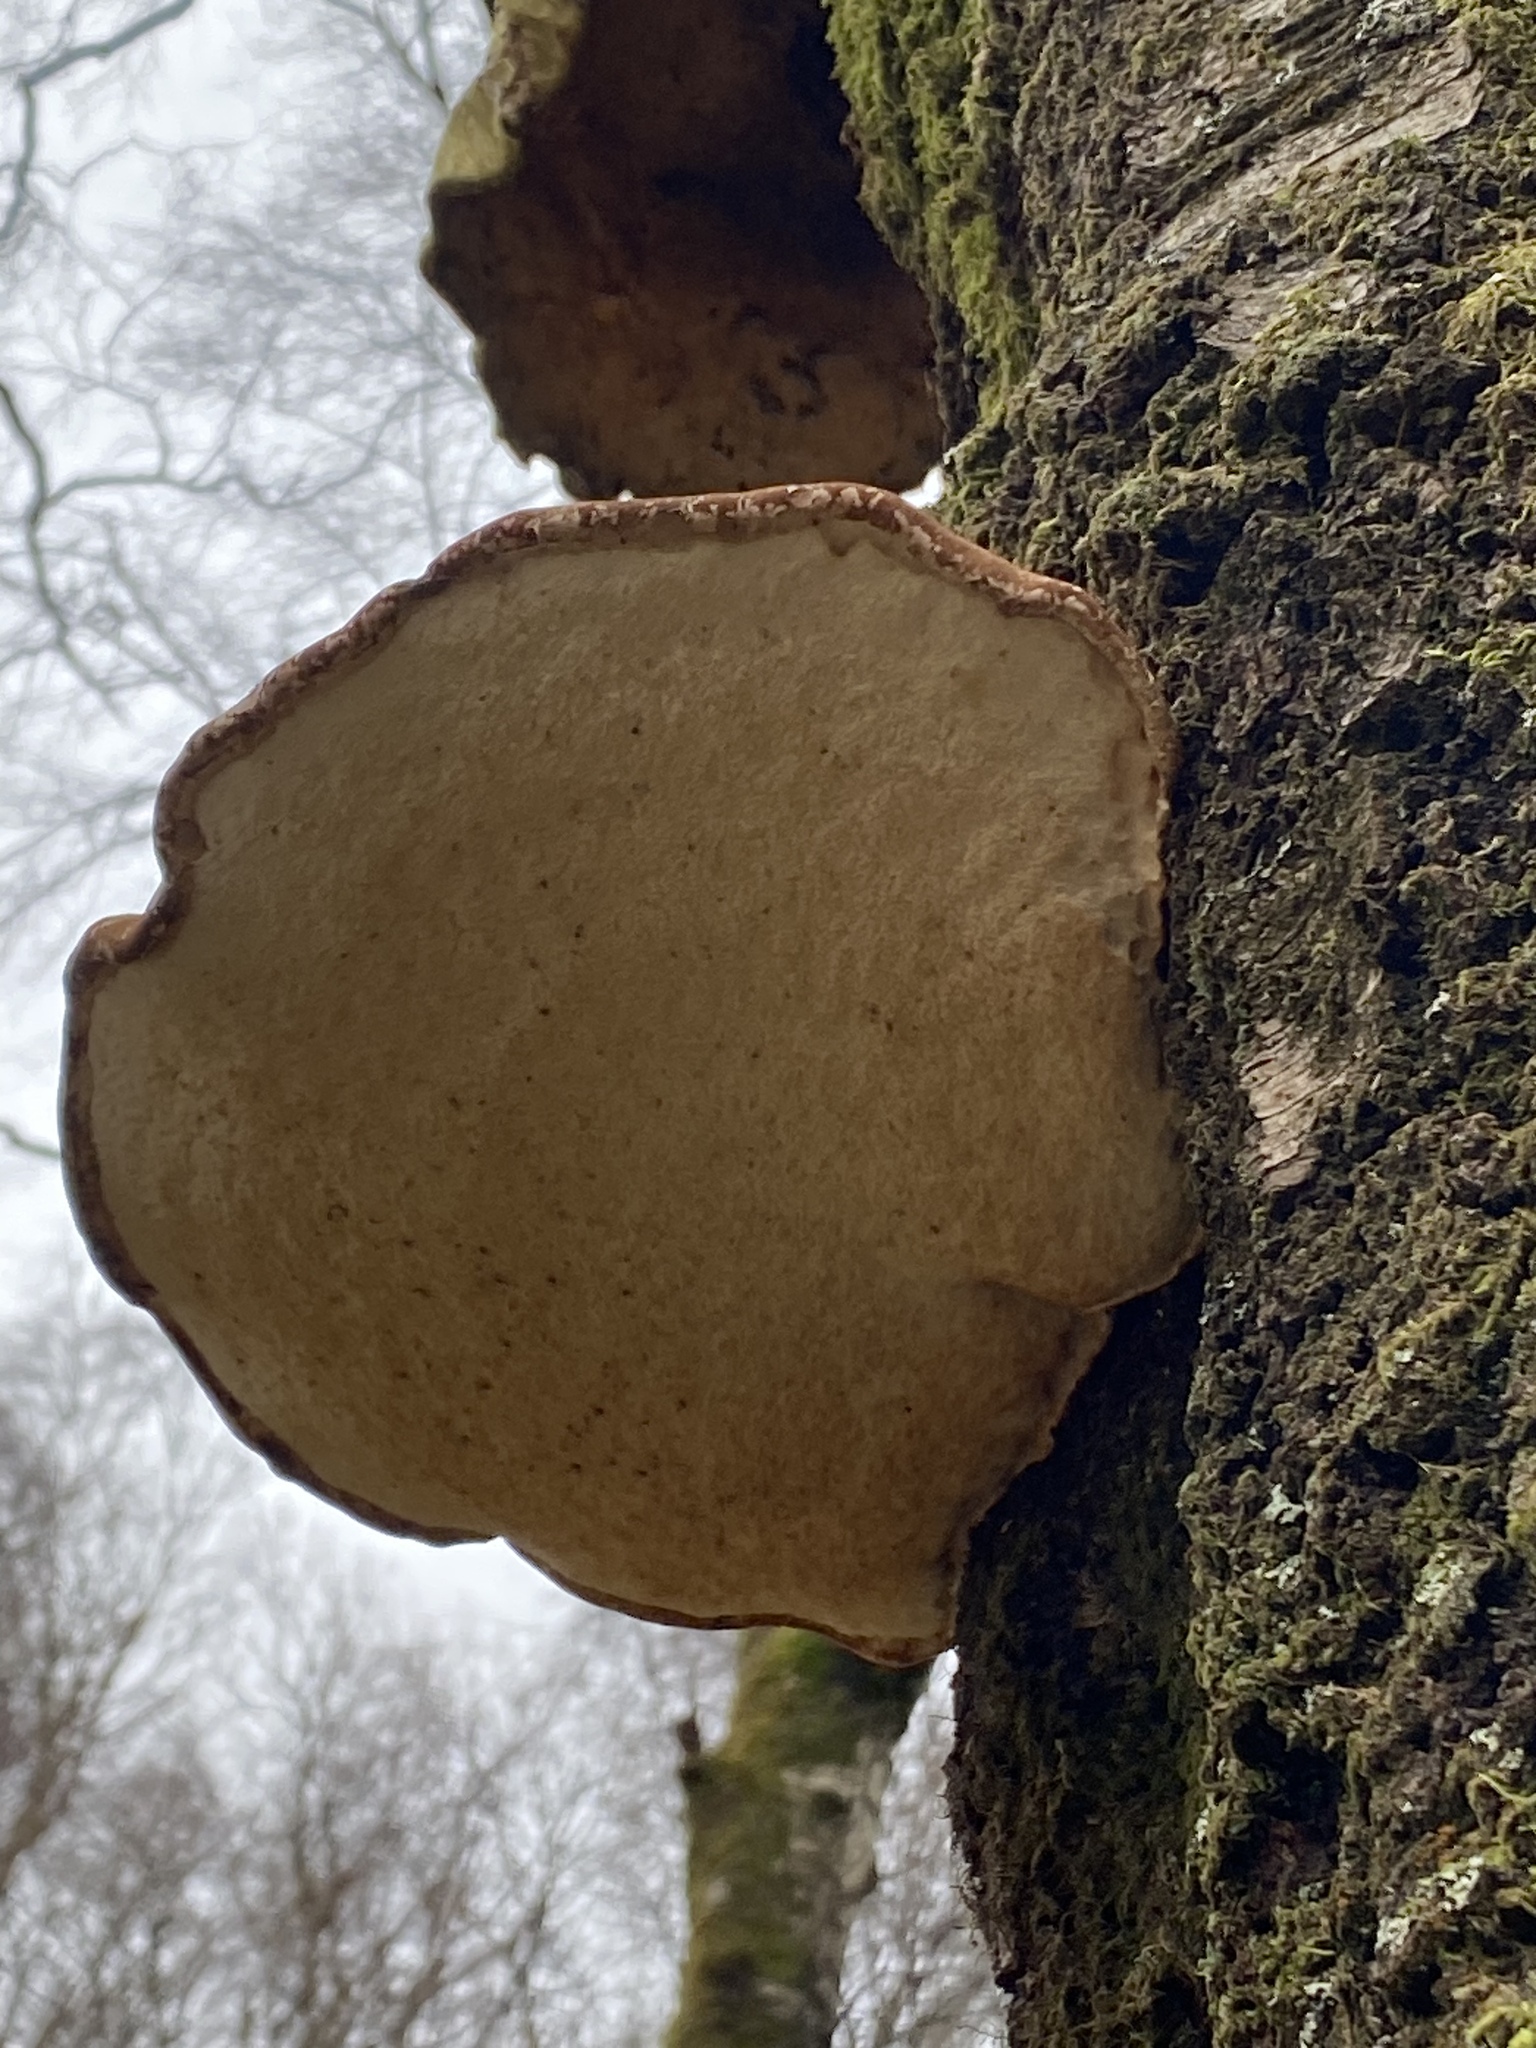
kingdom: Fungi
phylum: Basidiomycota
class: Agaricomycetes
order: Polyporales
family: Fomitopsidaceae
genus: Fomitopsis
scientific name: Fomitopsis betulina
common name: Birch polypore
